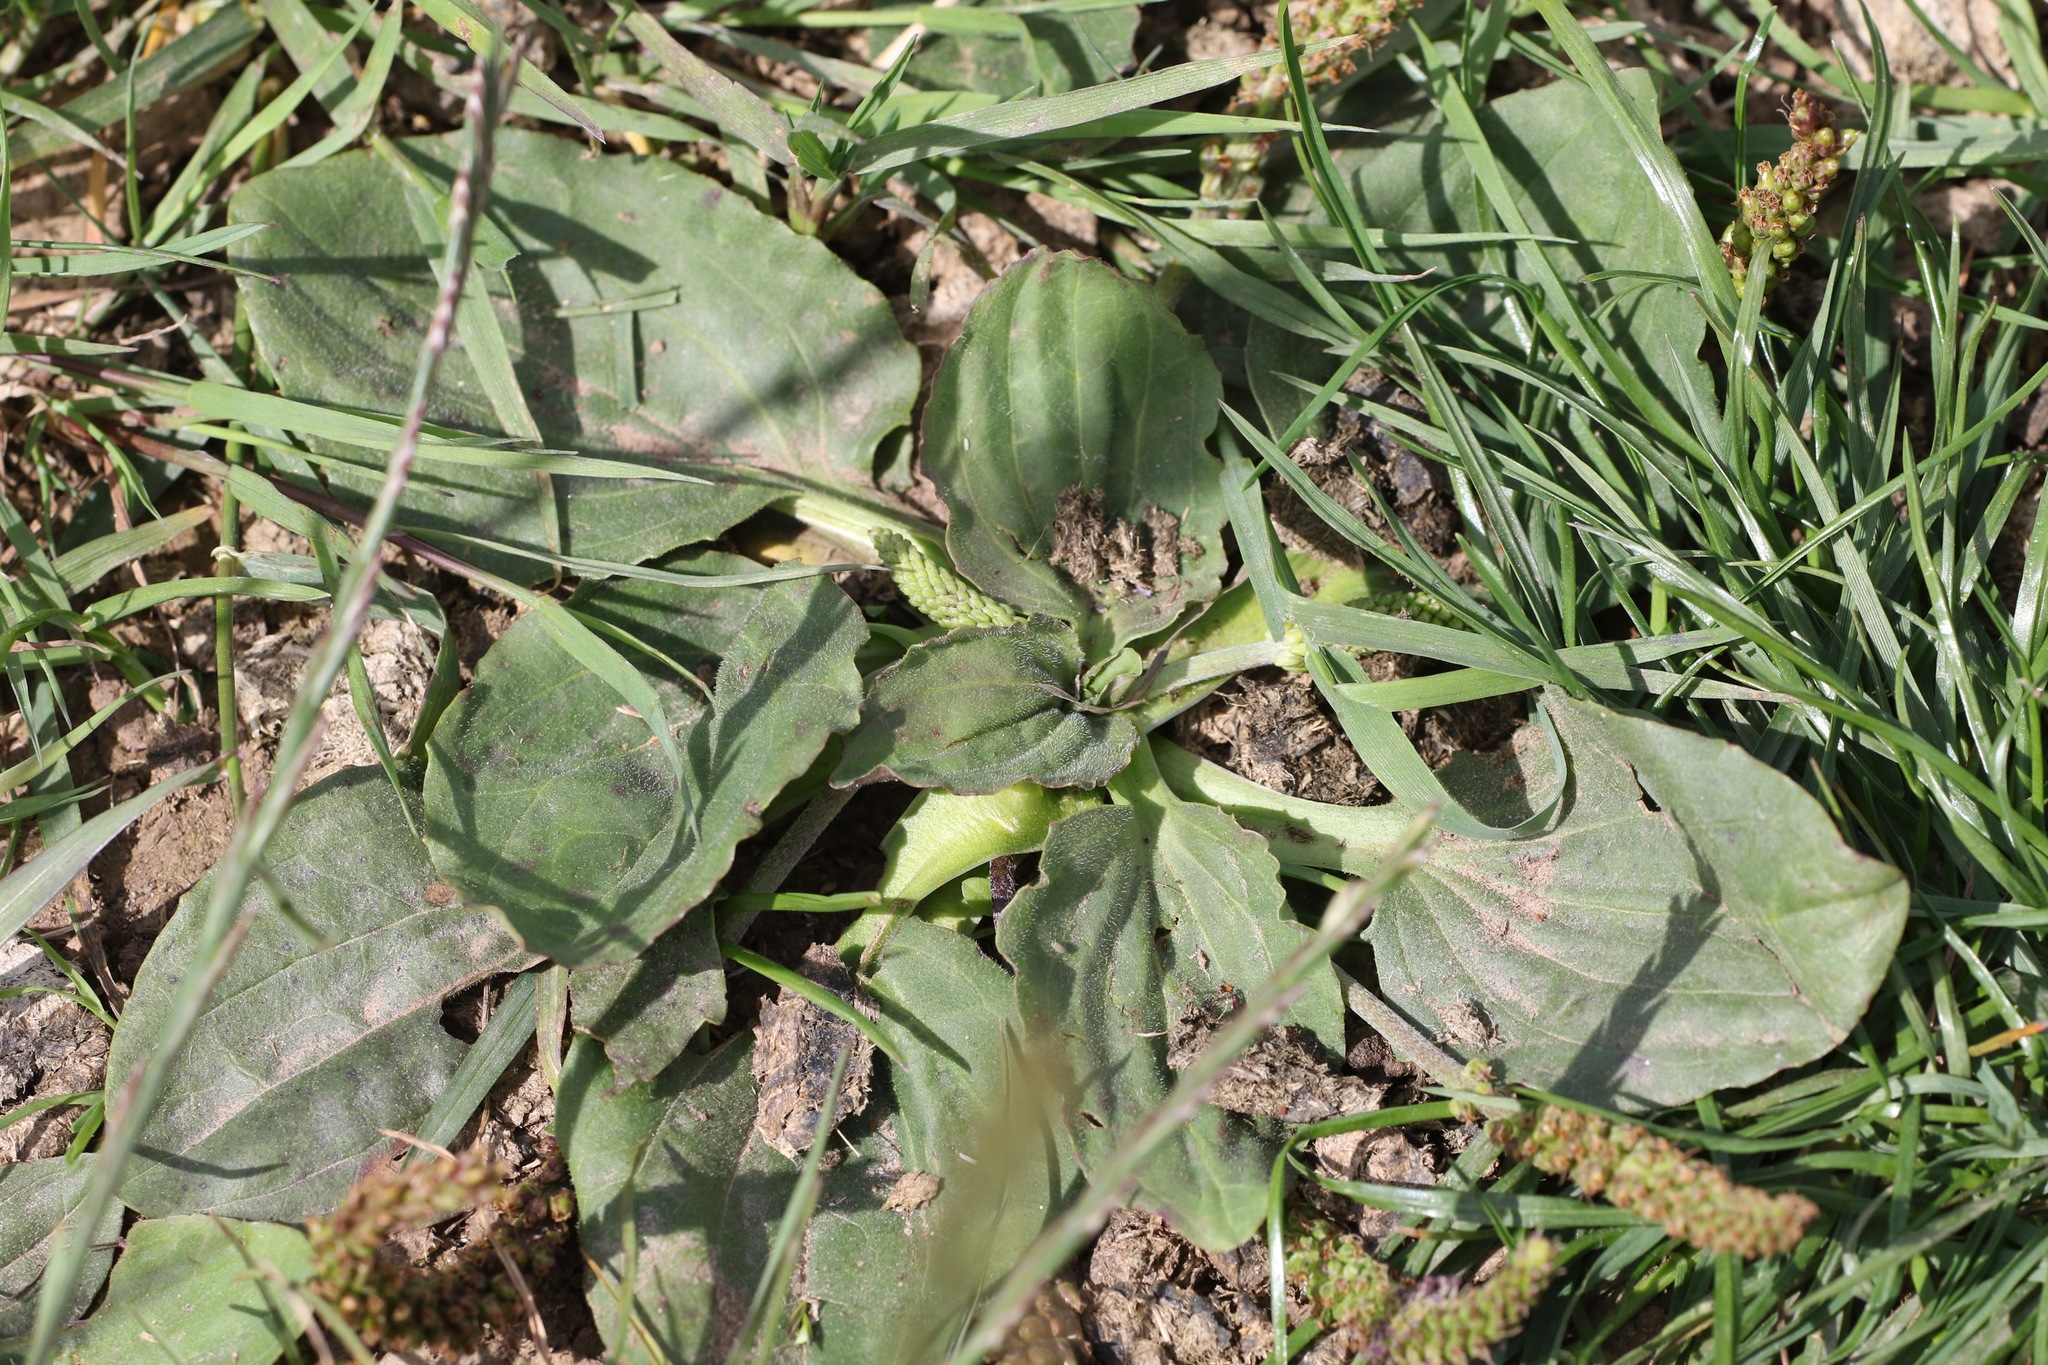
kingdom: Plantae
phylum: Tracheophyta
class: Magnoliopsida
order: Lamiales
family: Plantaginaceae
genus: Plantago
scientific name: Plantago major
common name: Common plantain
